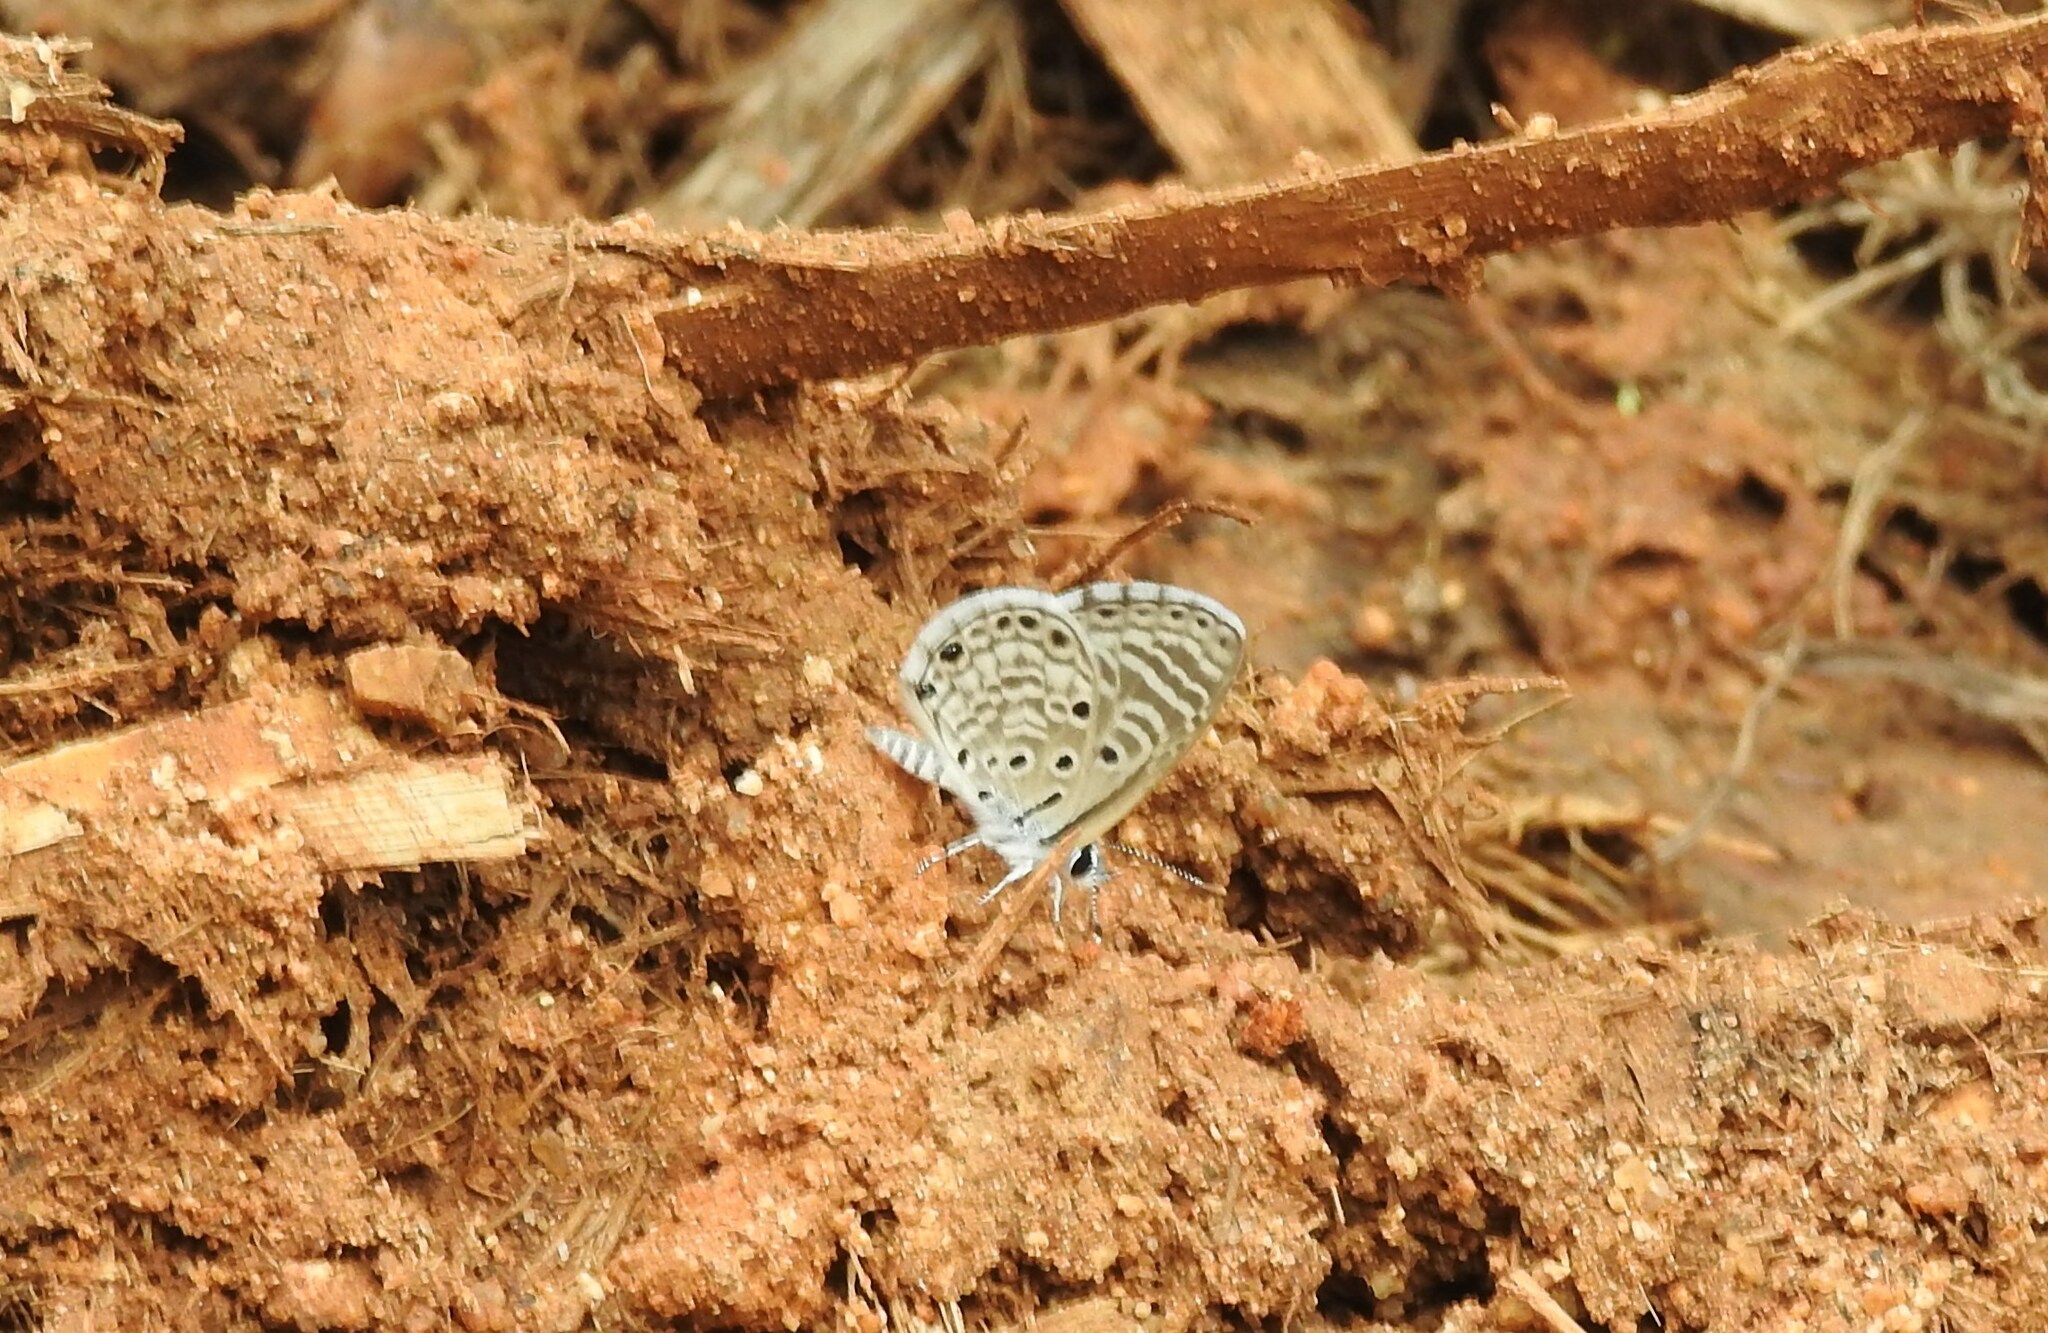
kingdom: Animalia
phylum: Arthropoda
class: Insecta
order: Lepidoptera
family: Lycaenidae
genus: Azanus
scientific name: Azanus jesous
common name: African babul blue
